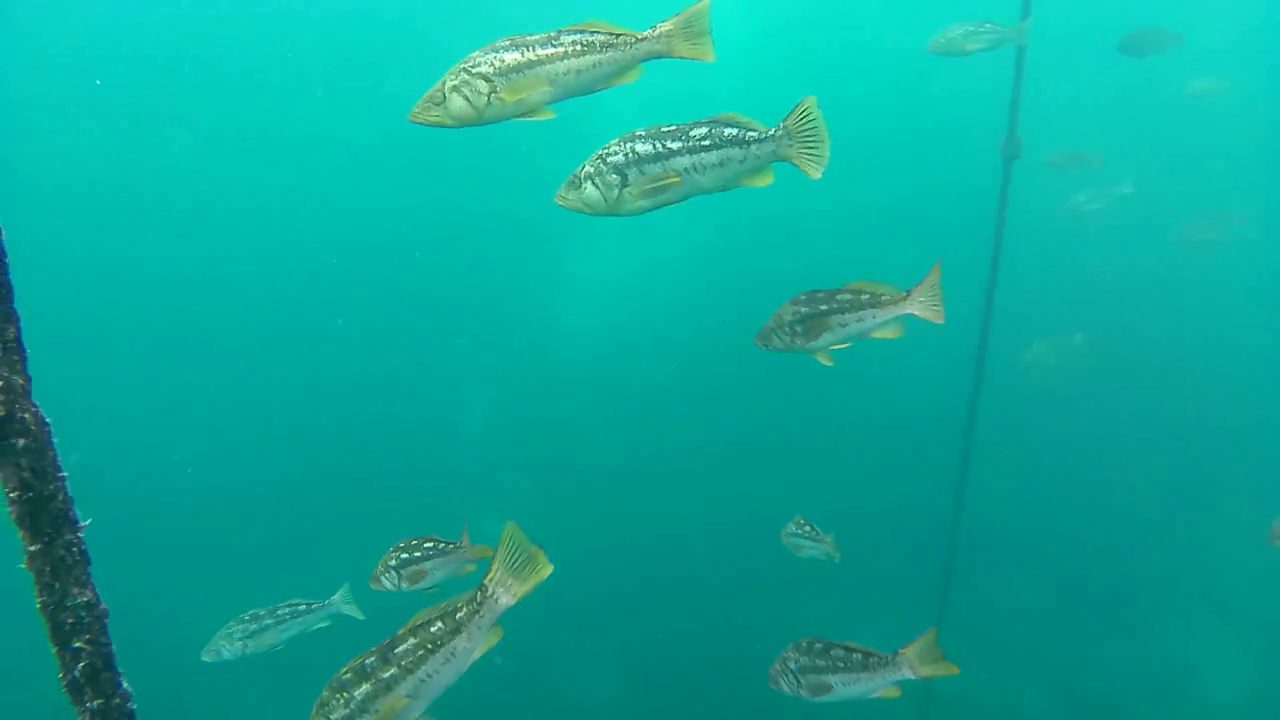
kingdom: Animalia
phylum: Chordata
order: Perciformes
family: Serranidae
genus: Paralabrax
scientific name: Paralabrax clathratus
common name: Kelp bass
